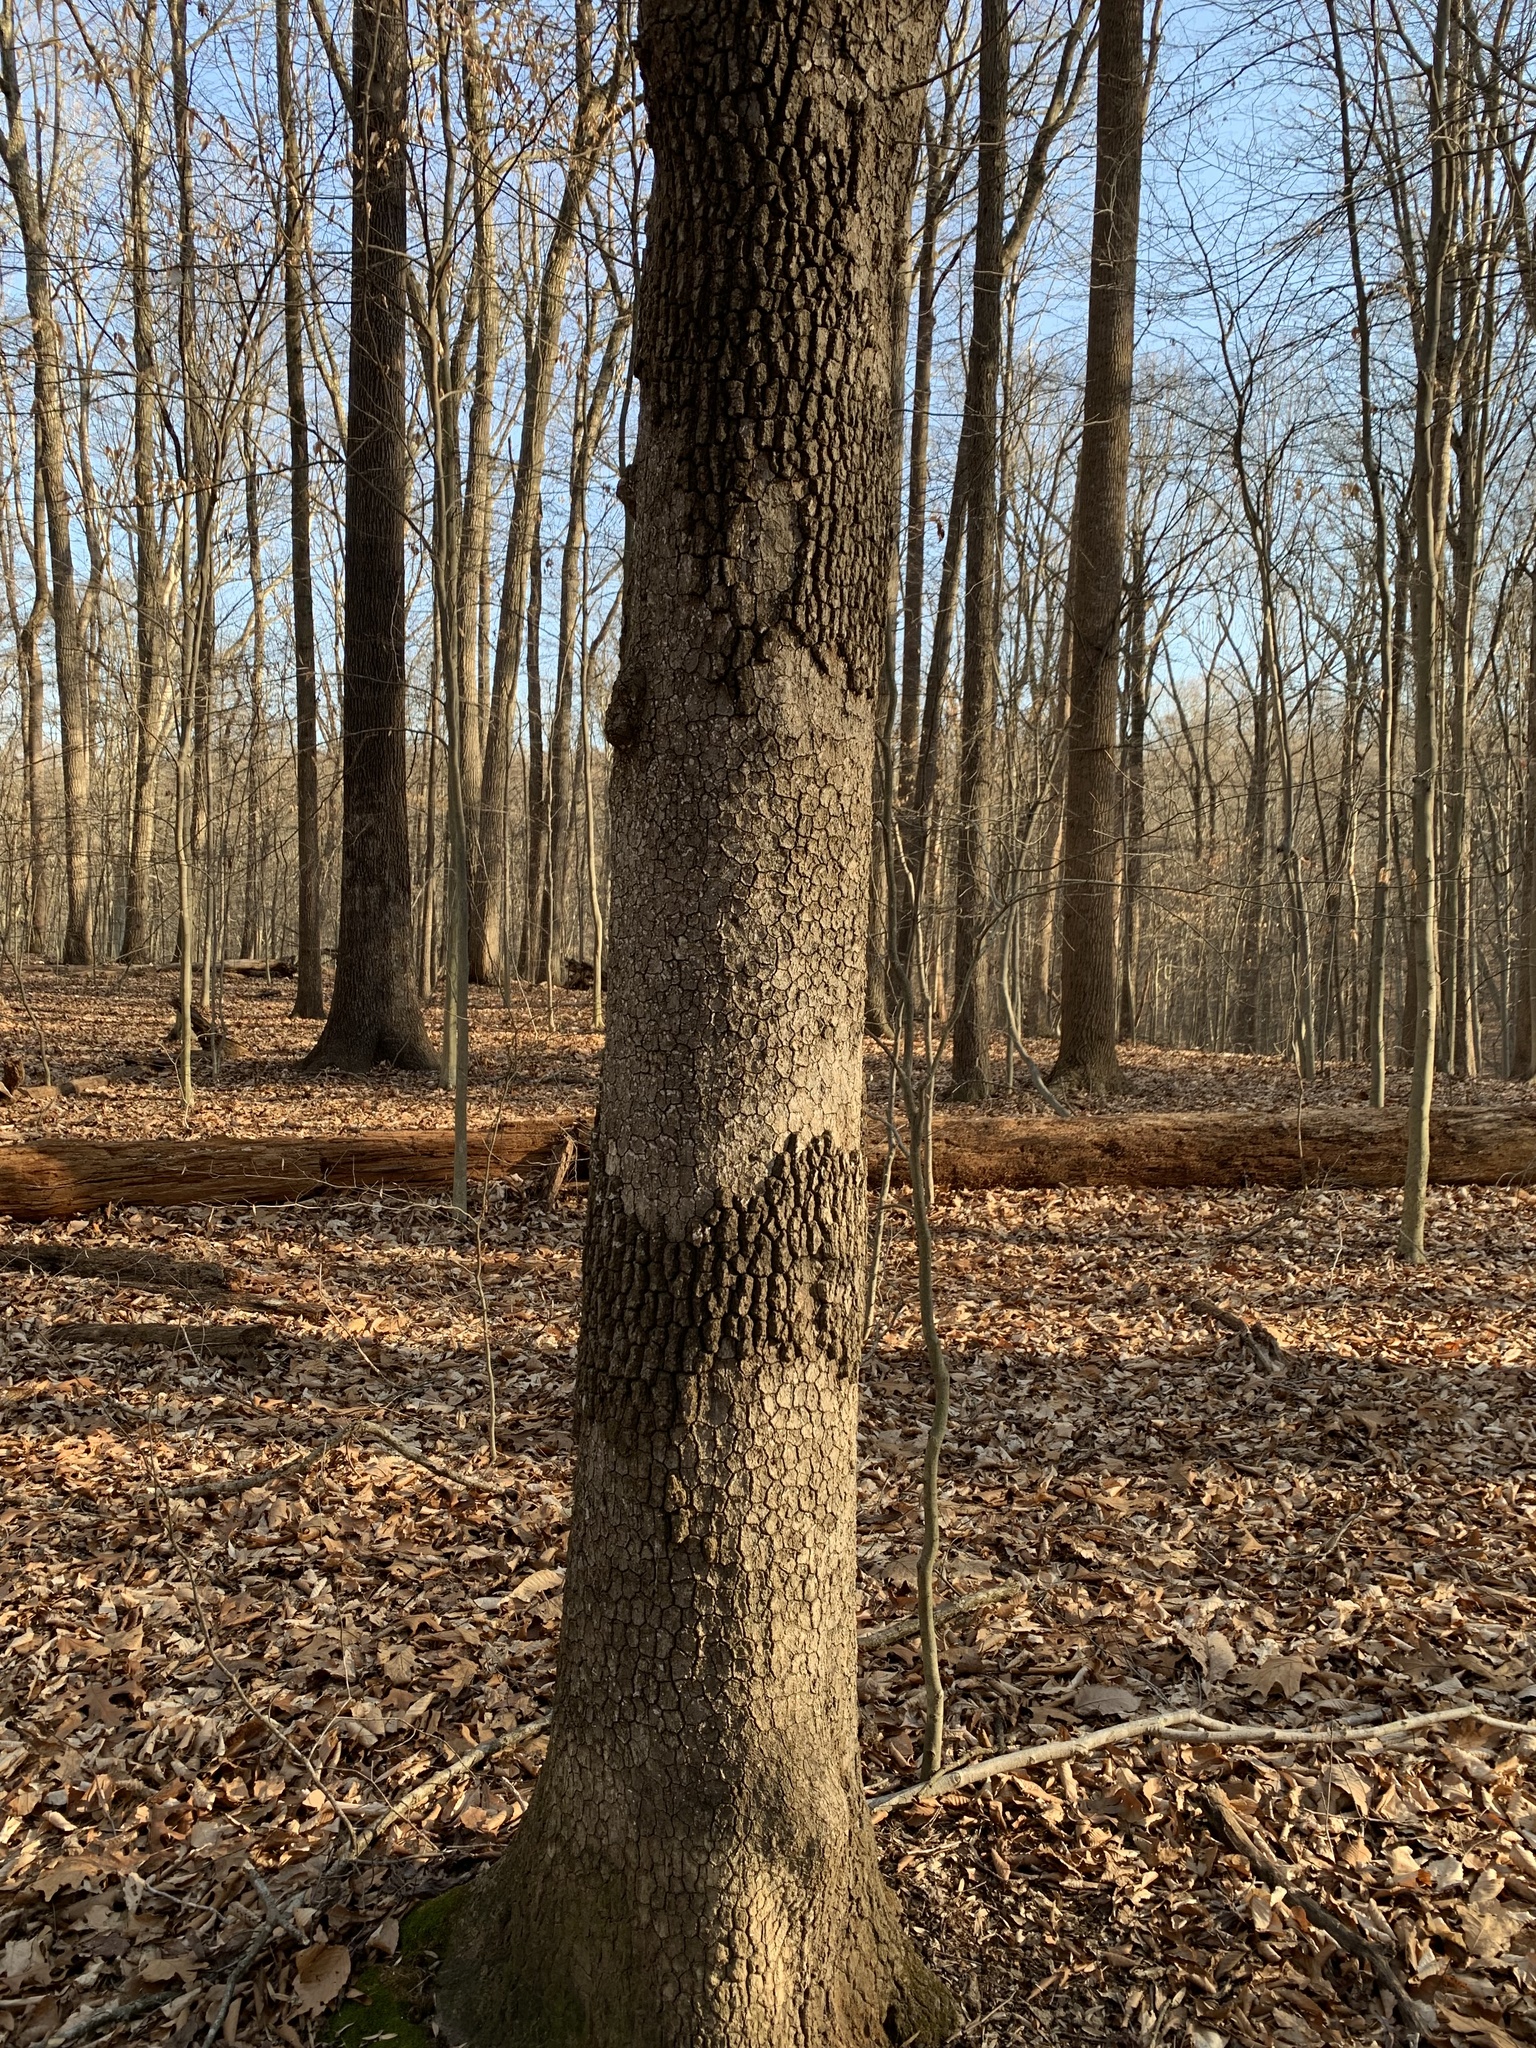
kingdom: Fungi
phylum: Basidiomycota
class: Agaricomycetes
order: Russulales
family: Stereaceae
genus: Acanthophysium
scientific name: Acanthophysium oakesii
